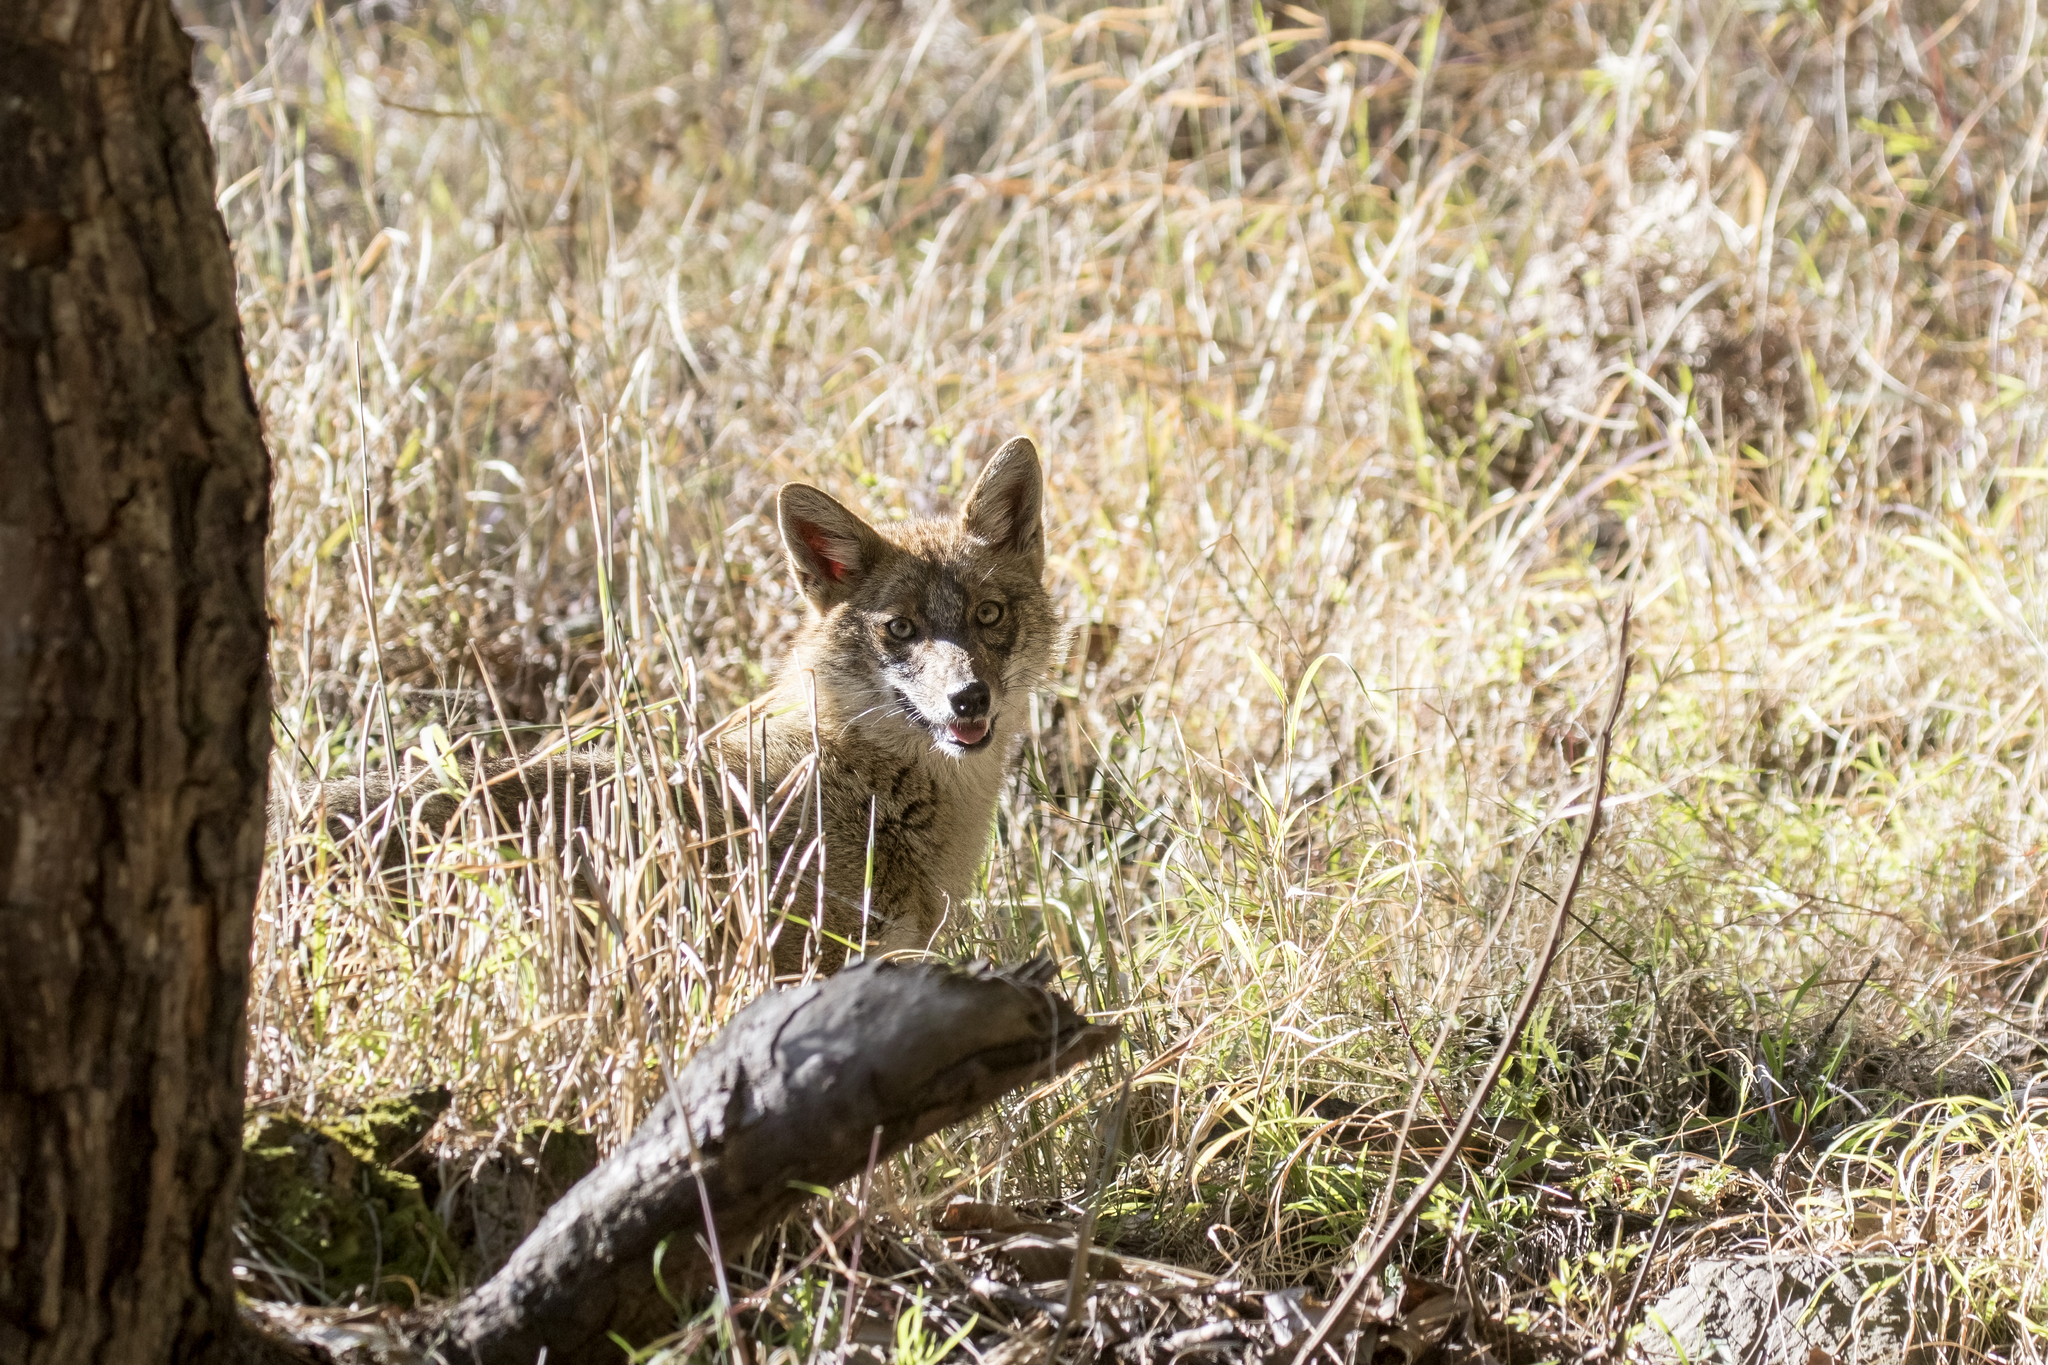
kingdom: Animalia
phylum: Chordata
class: Mammalia
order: Carnivora
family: Canidae
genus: Canis
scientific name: Canis aureus
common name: Golden jackal
